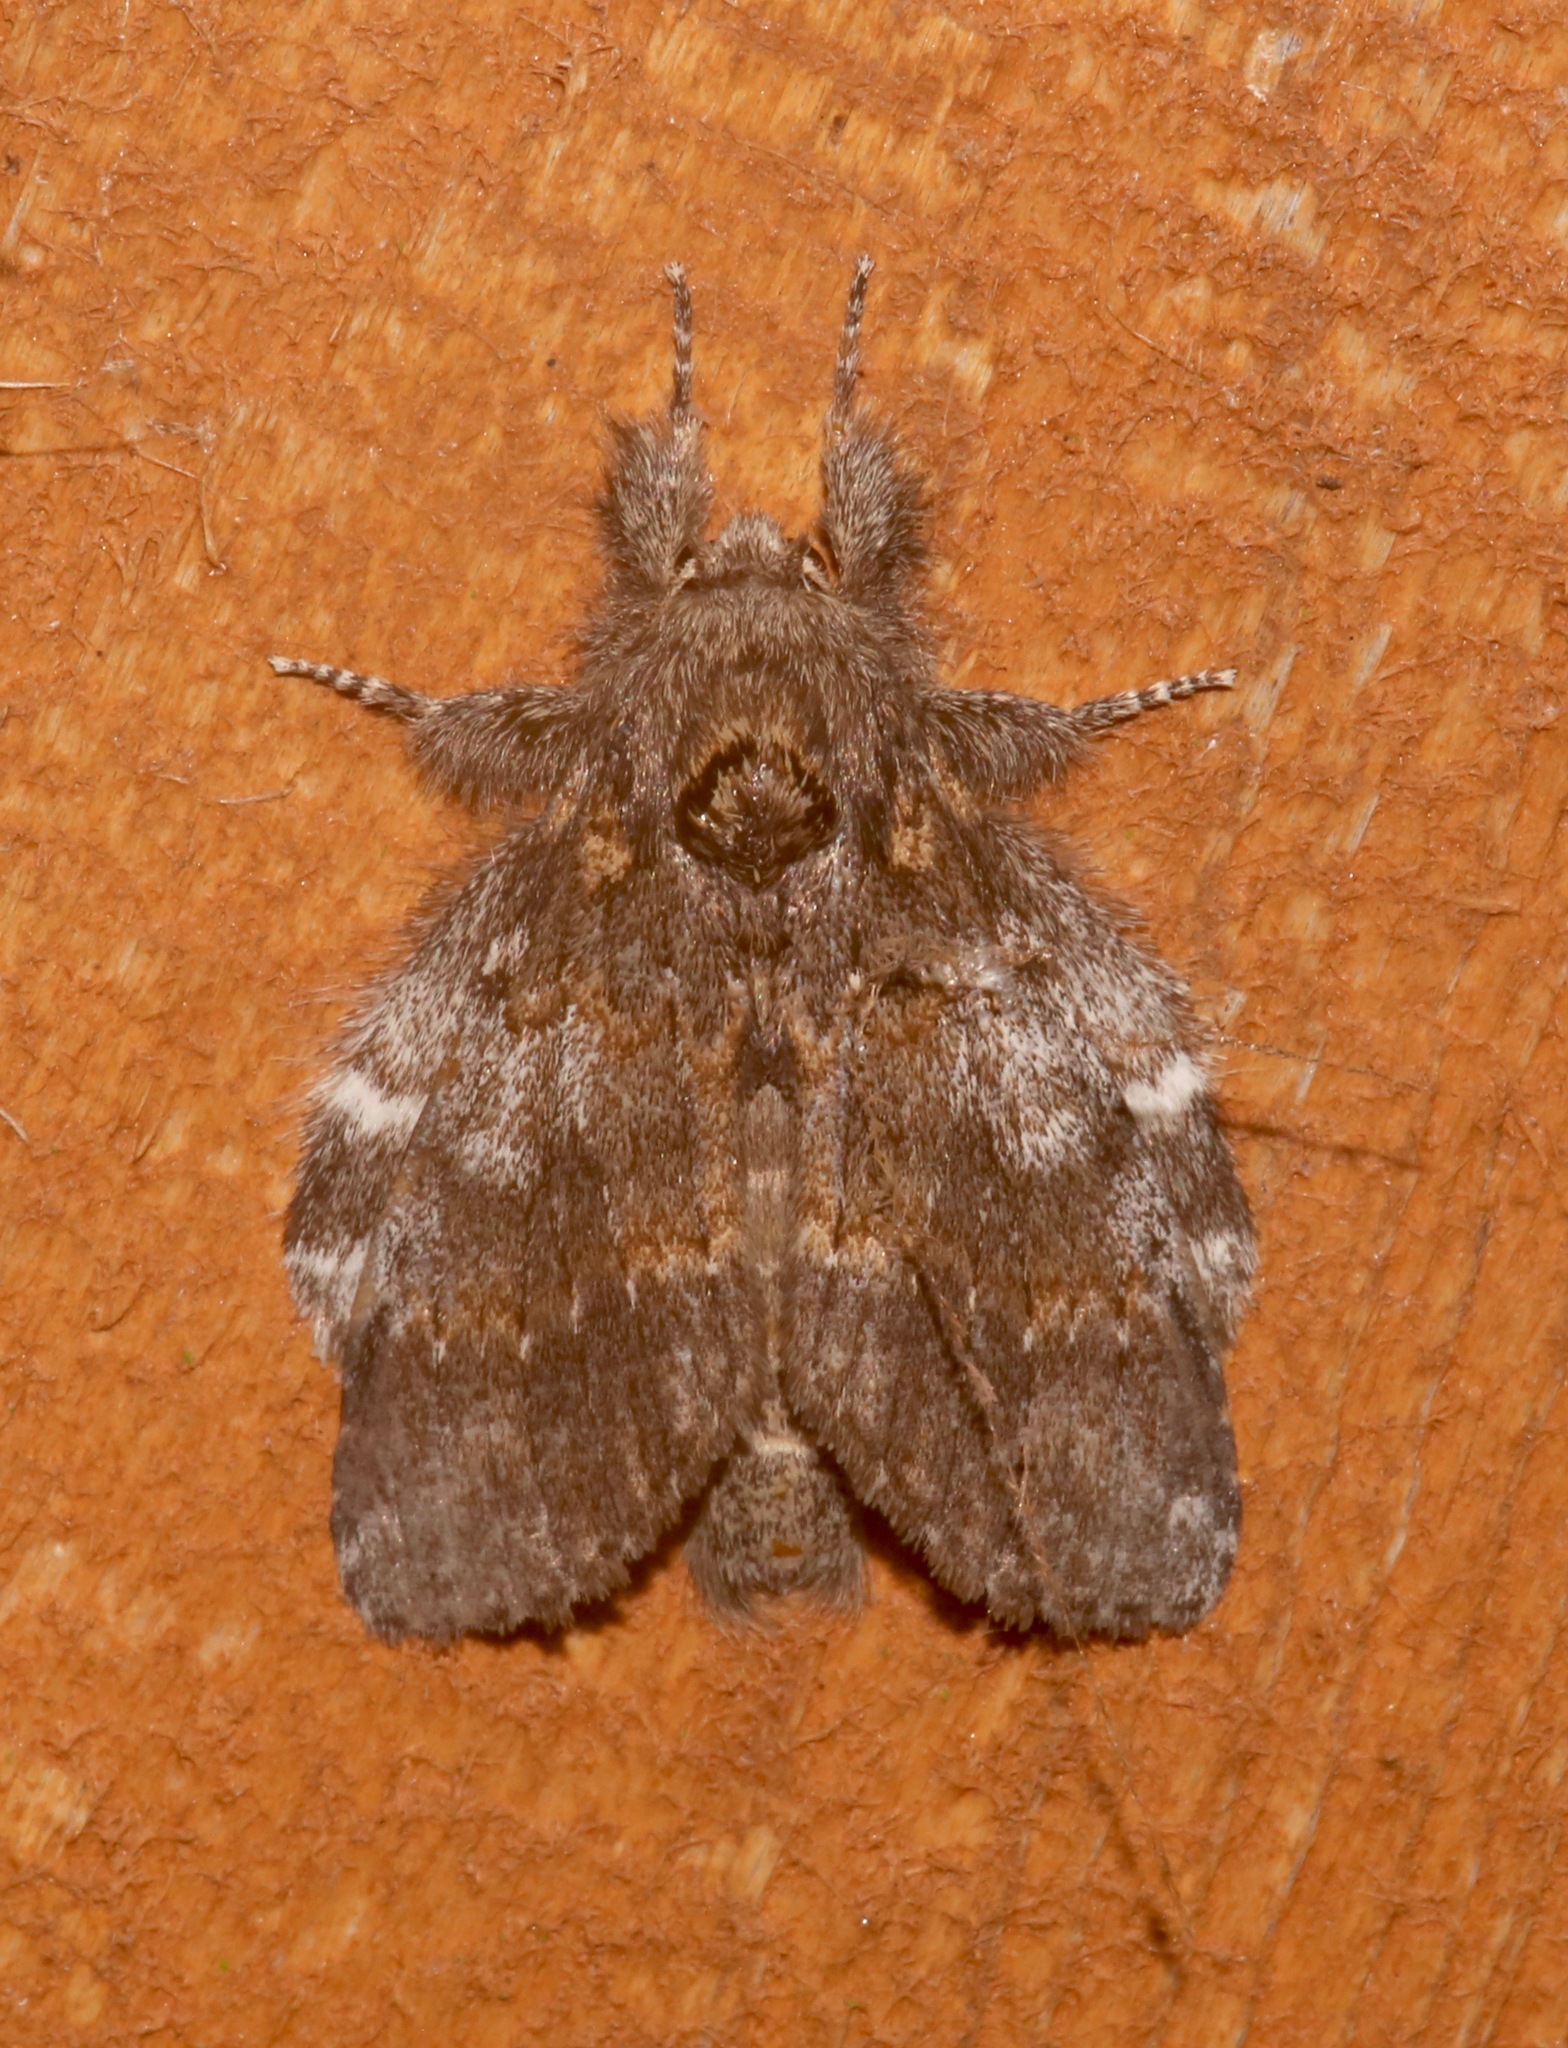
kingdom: Animalia
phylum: Arthropoda
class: Insecta
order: Lepidoptera
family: Notodontidae
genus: Peridea
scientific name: Peridea angulosa
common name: Angulose prominent
